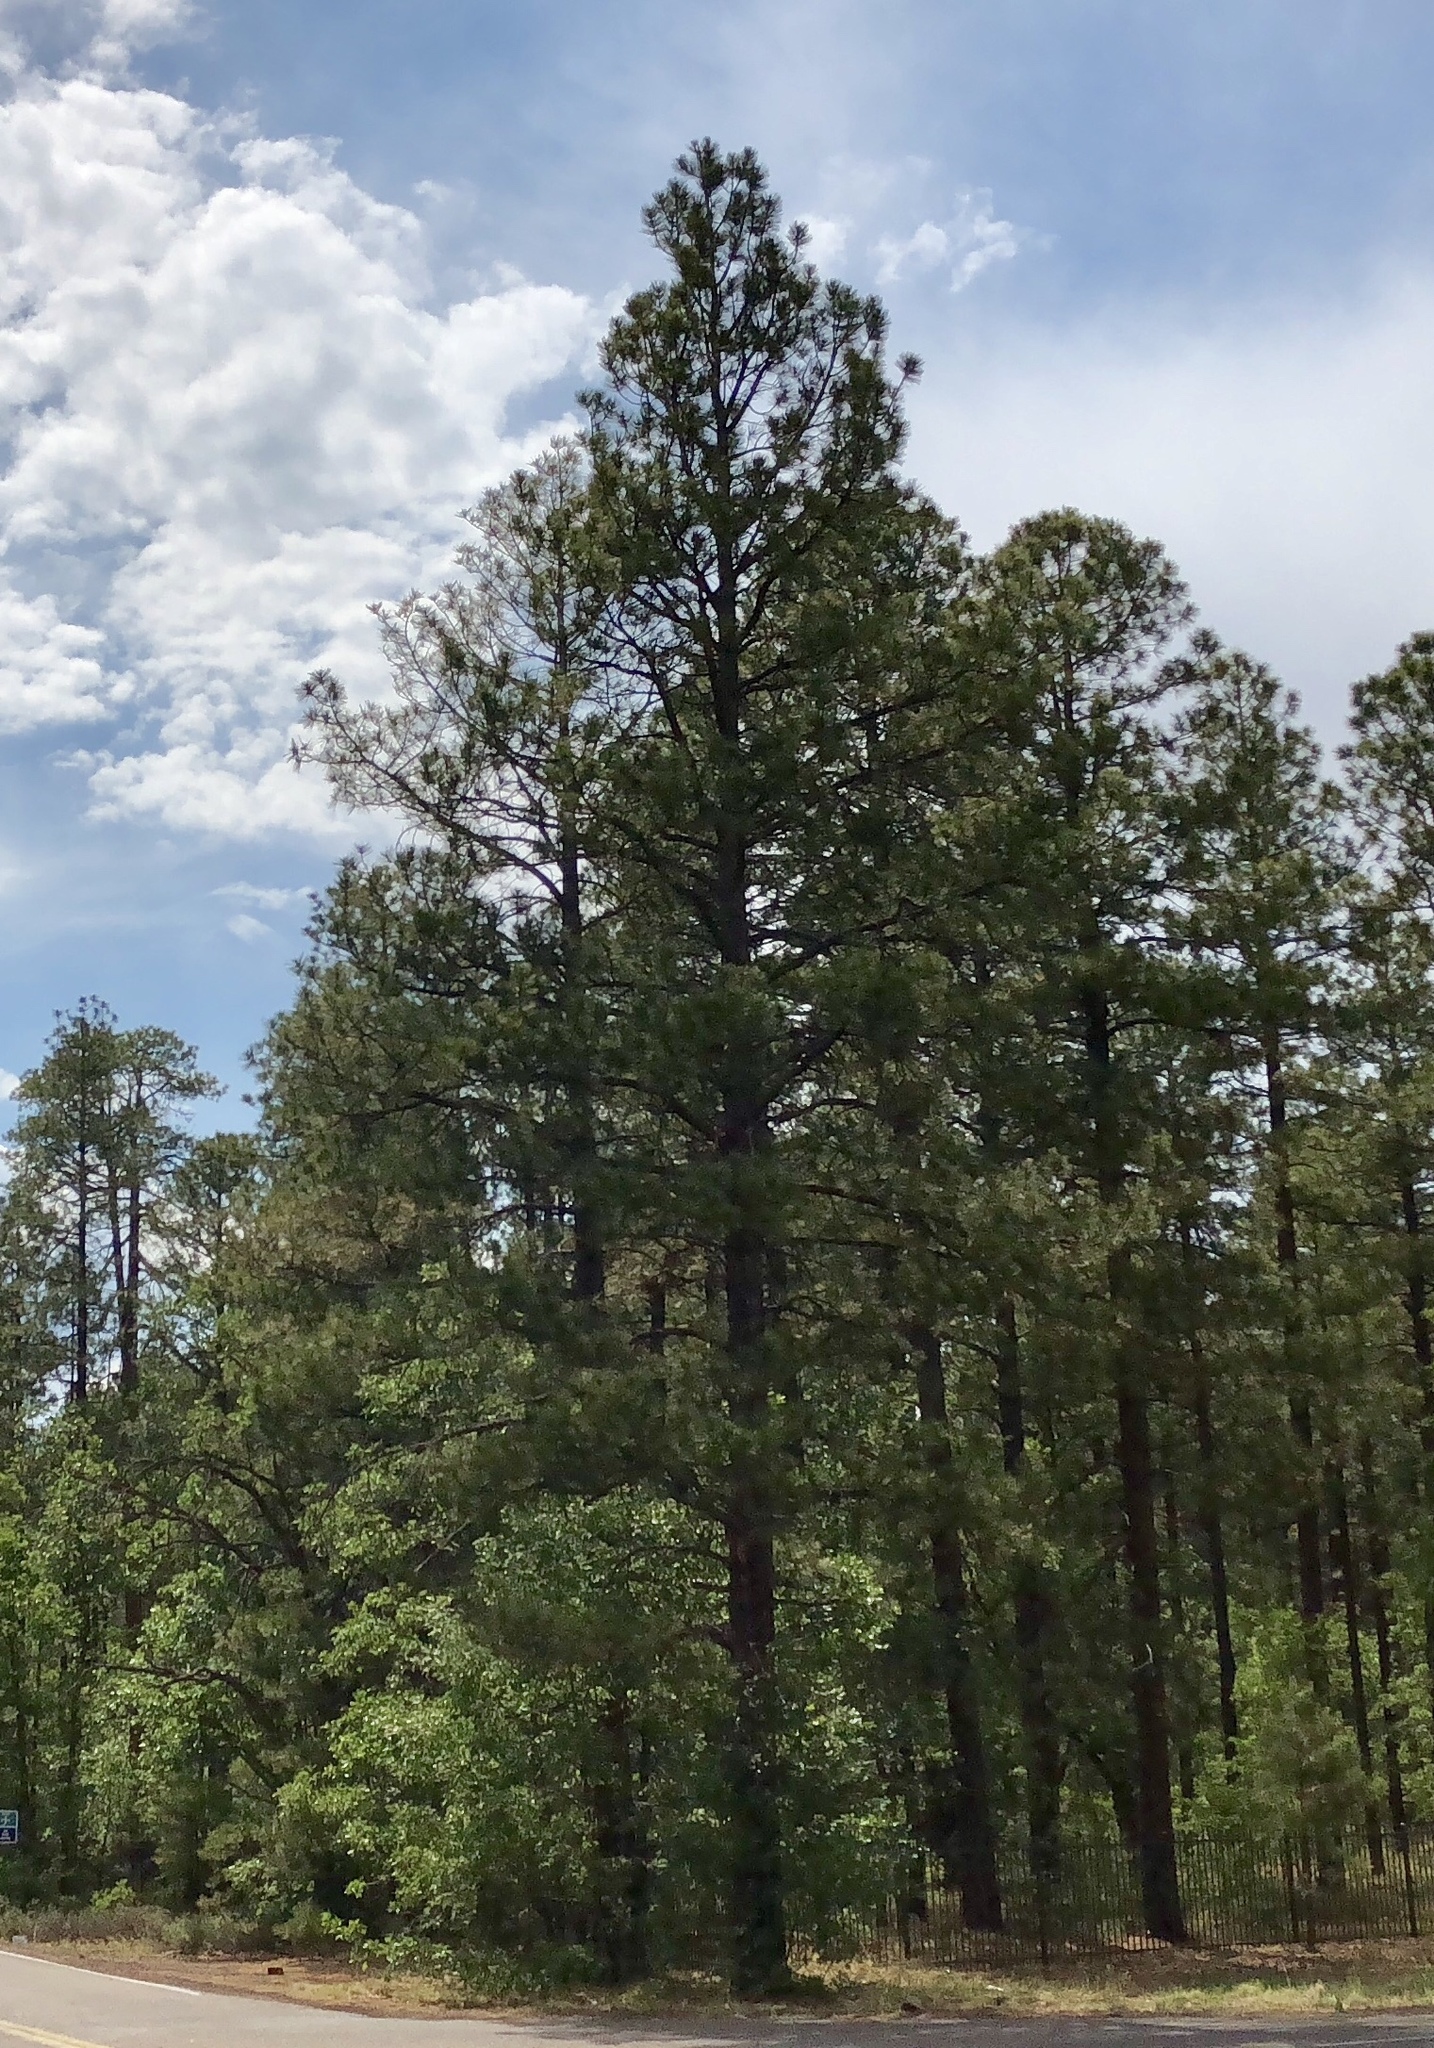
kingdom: Plantae
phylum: Tracheophyta
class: Pinopsida
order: Pinales
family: Pinaceae
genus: Pinus
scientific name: Pinus ponderosa
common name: Western yellow-pine
